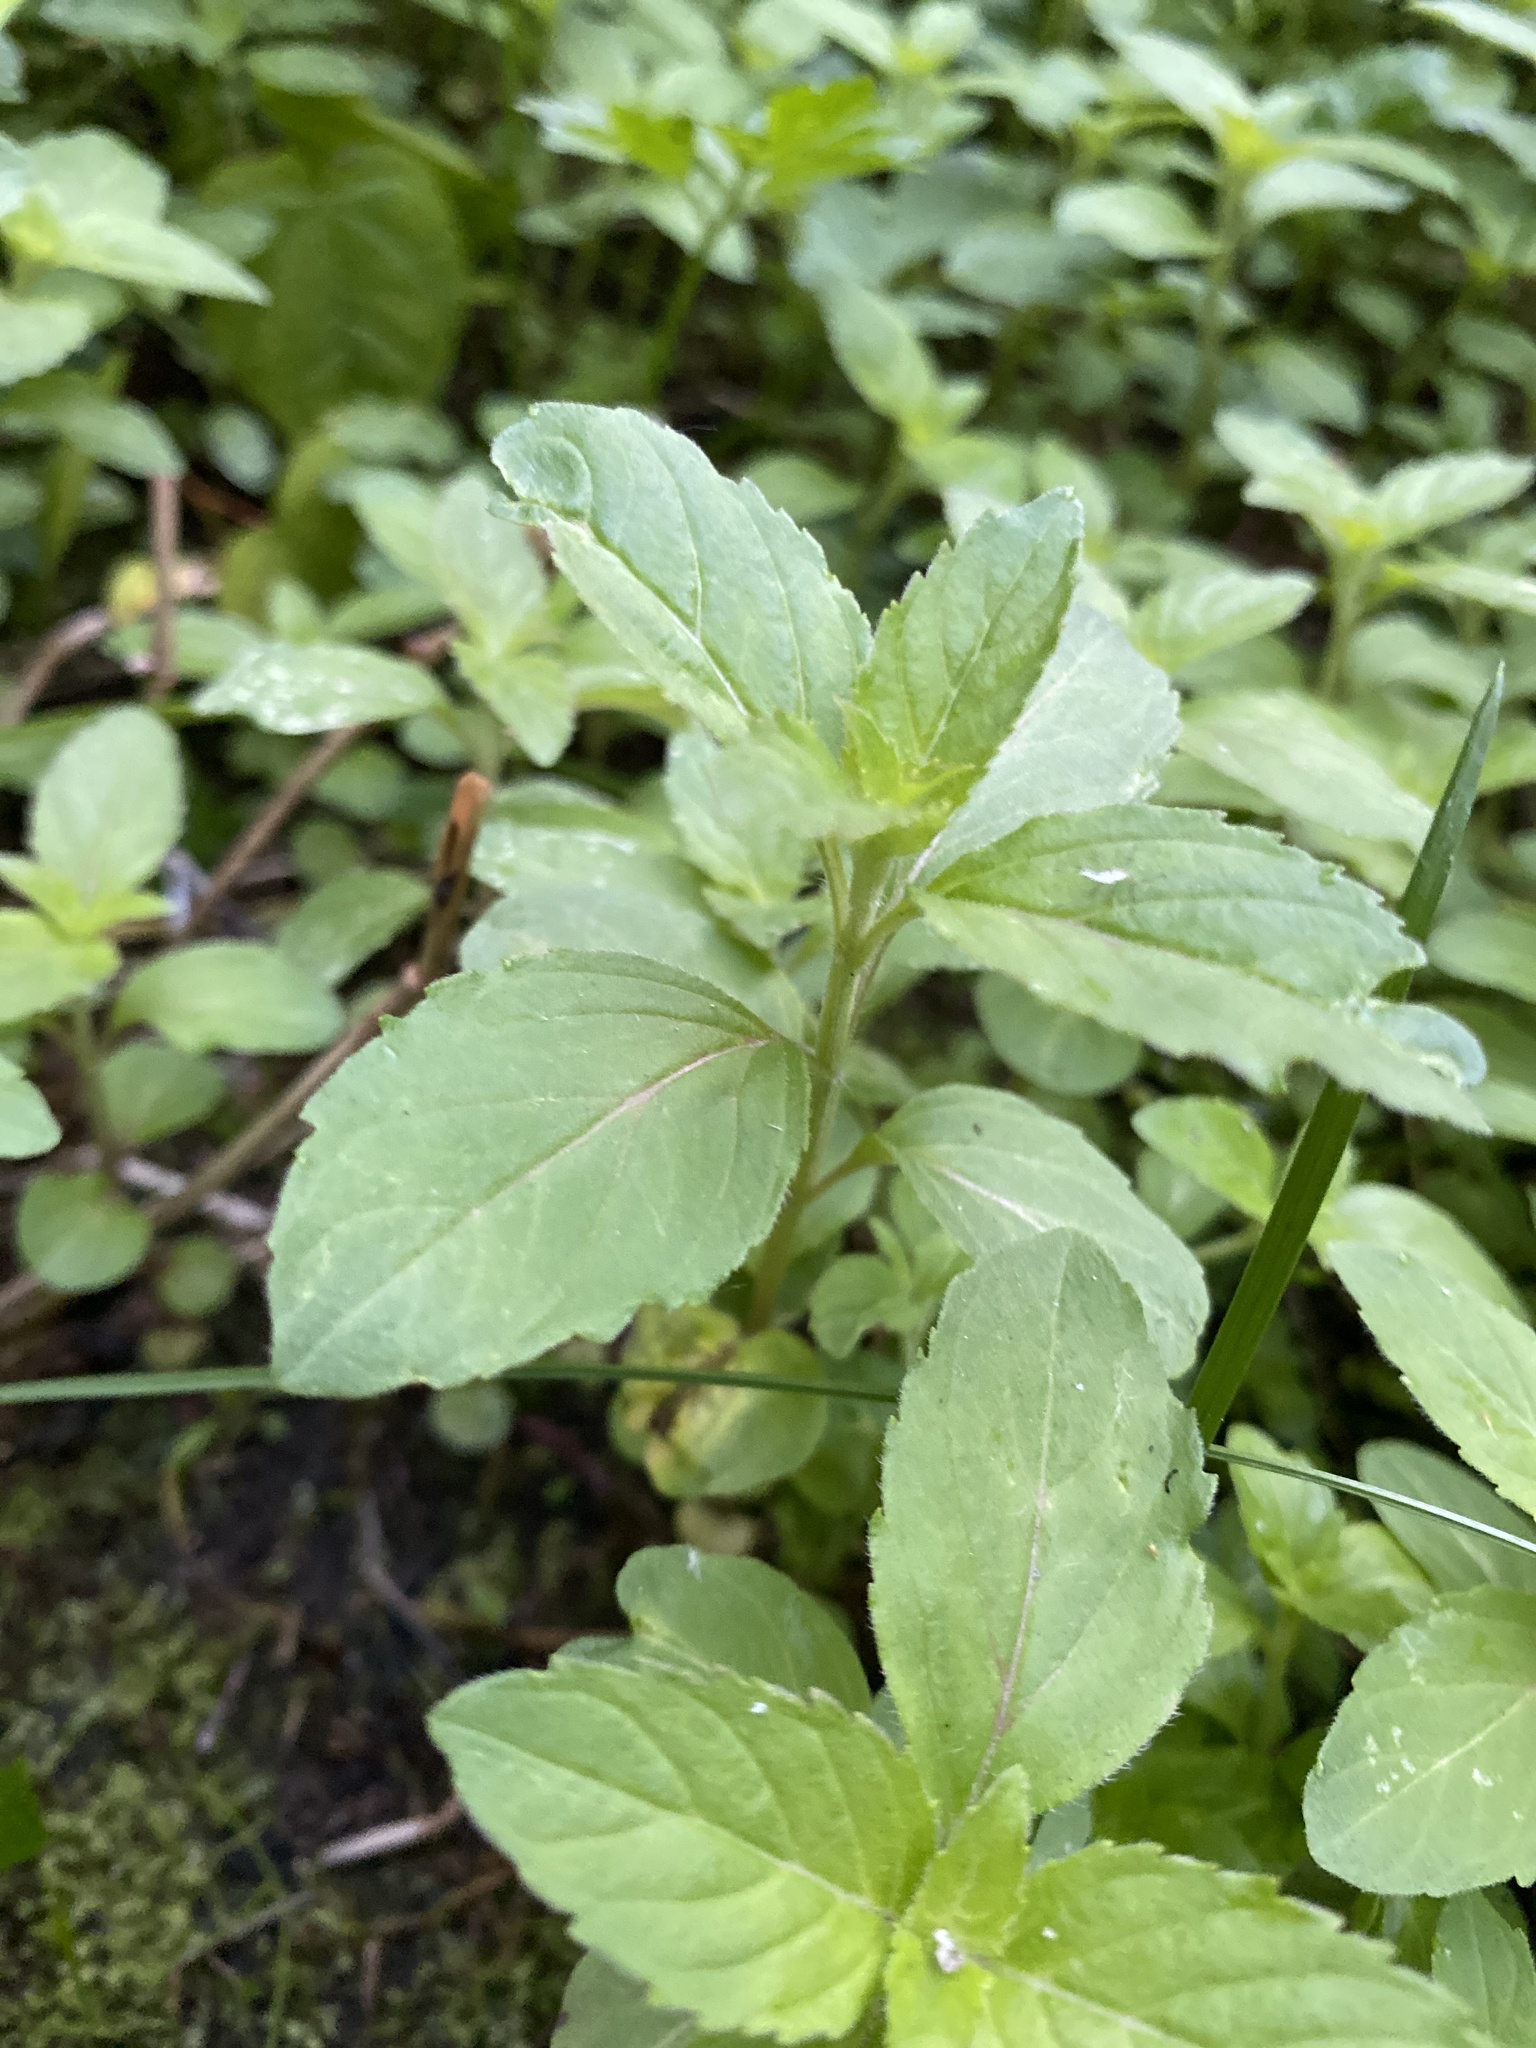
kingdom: Plantae
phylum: Tracheophyta
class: Magnoliopsida
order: Lamiales
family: Lamiaceae
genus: Mentha
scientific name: Mentha arvensis
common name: Corn mint
